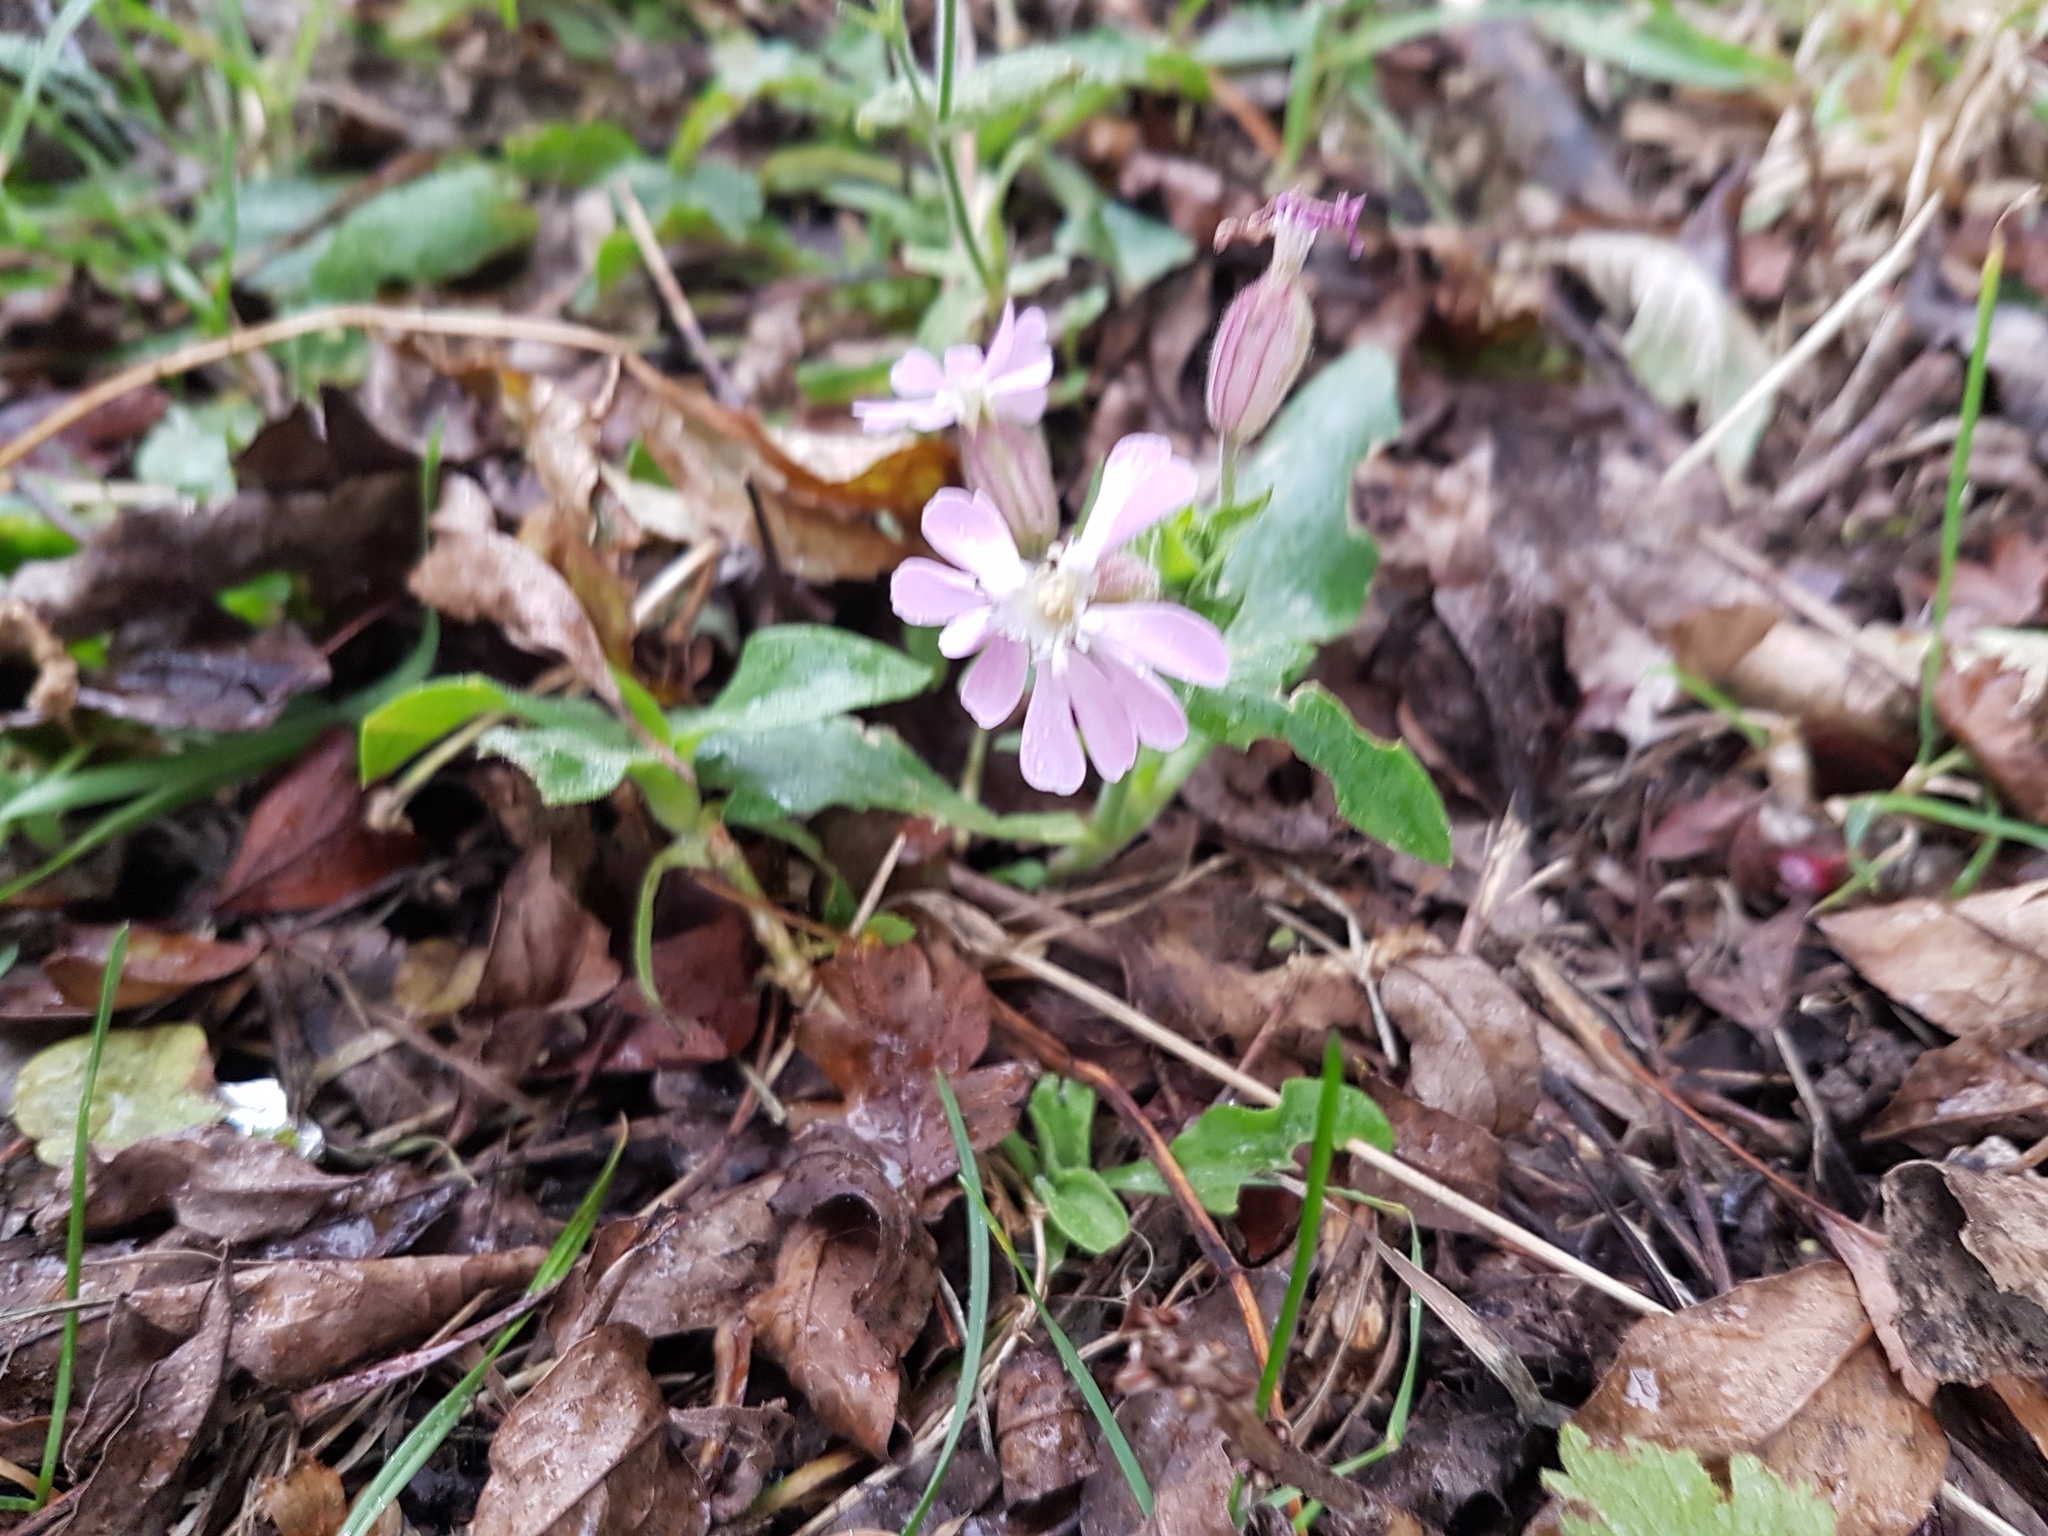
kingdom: Plantae
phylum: Tracheophyta
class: Magnoliopsida
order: Caryophyllales
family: Caryophyllaceae
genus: Silene
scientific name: Silene hampeana
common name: Catchfly
